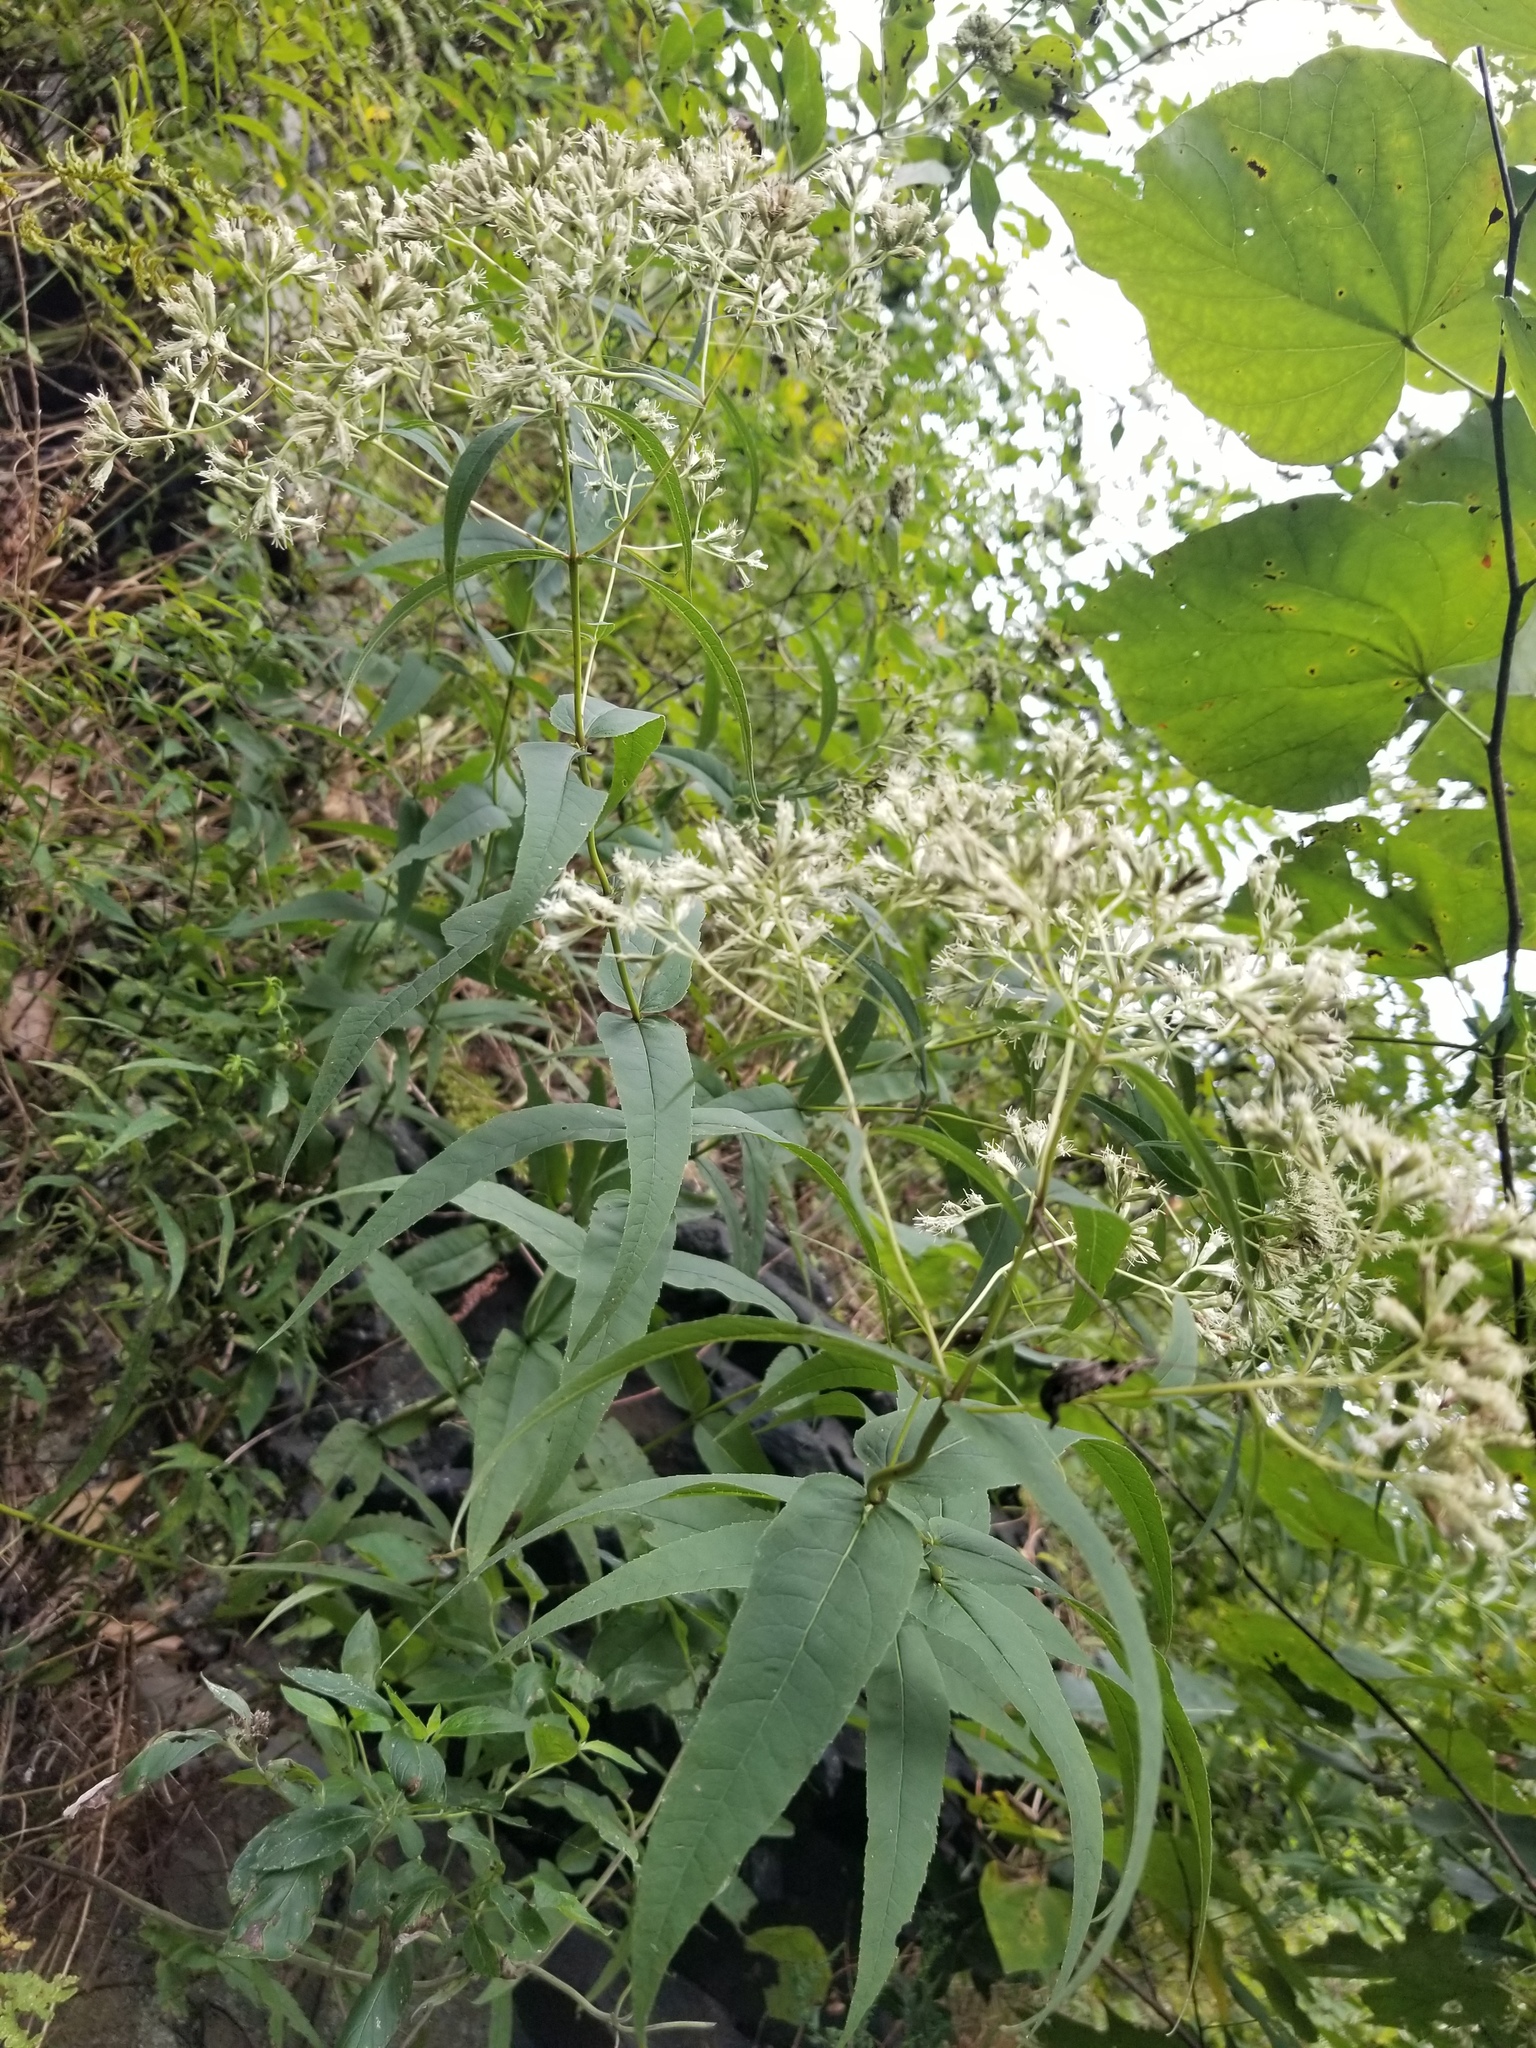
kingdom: Plantae
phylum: Tracheophyta
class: Magnoliopsida
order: Asterales
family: Asteraceae
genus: Eupatorium
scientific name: Eupatorium sessilifolium
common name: Upland boneset
